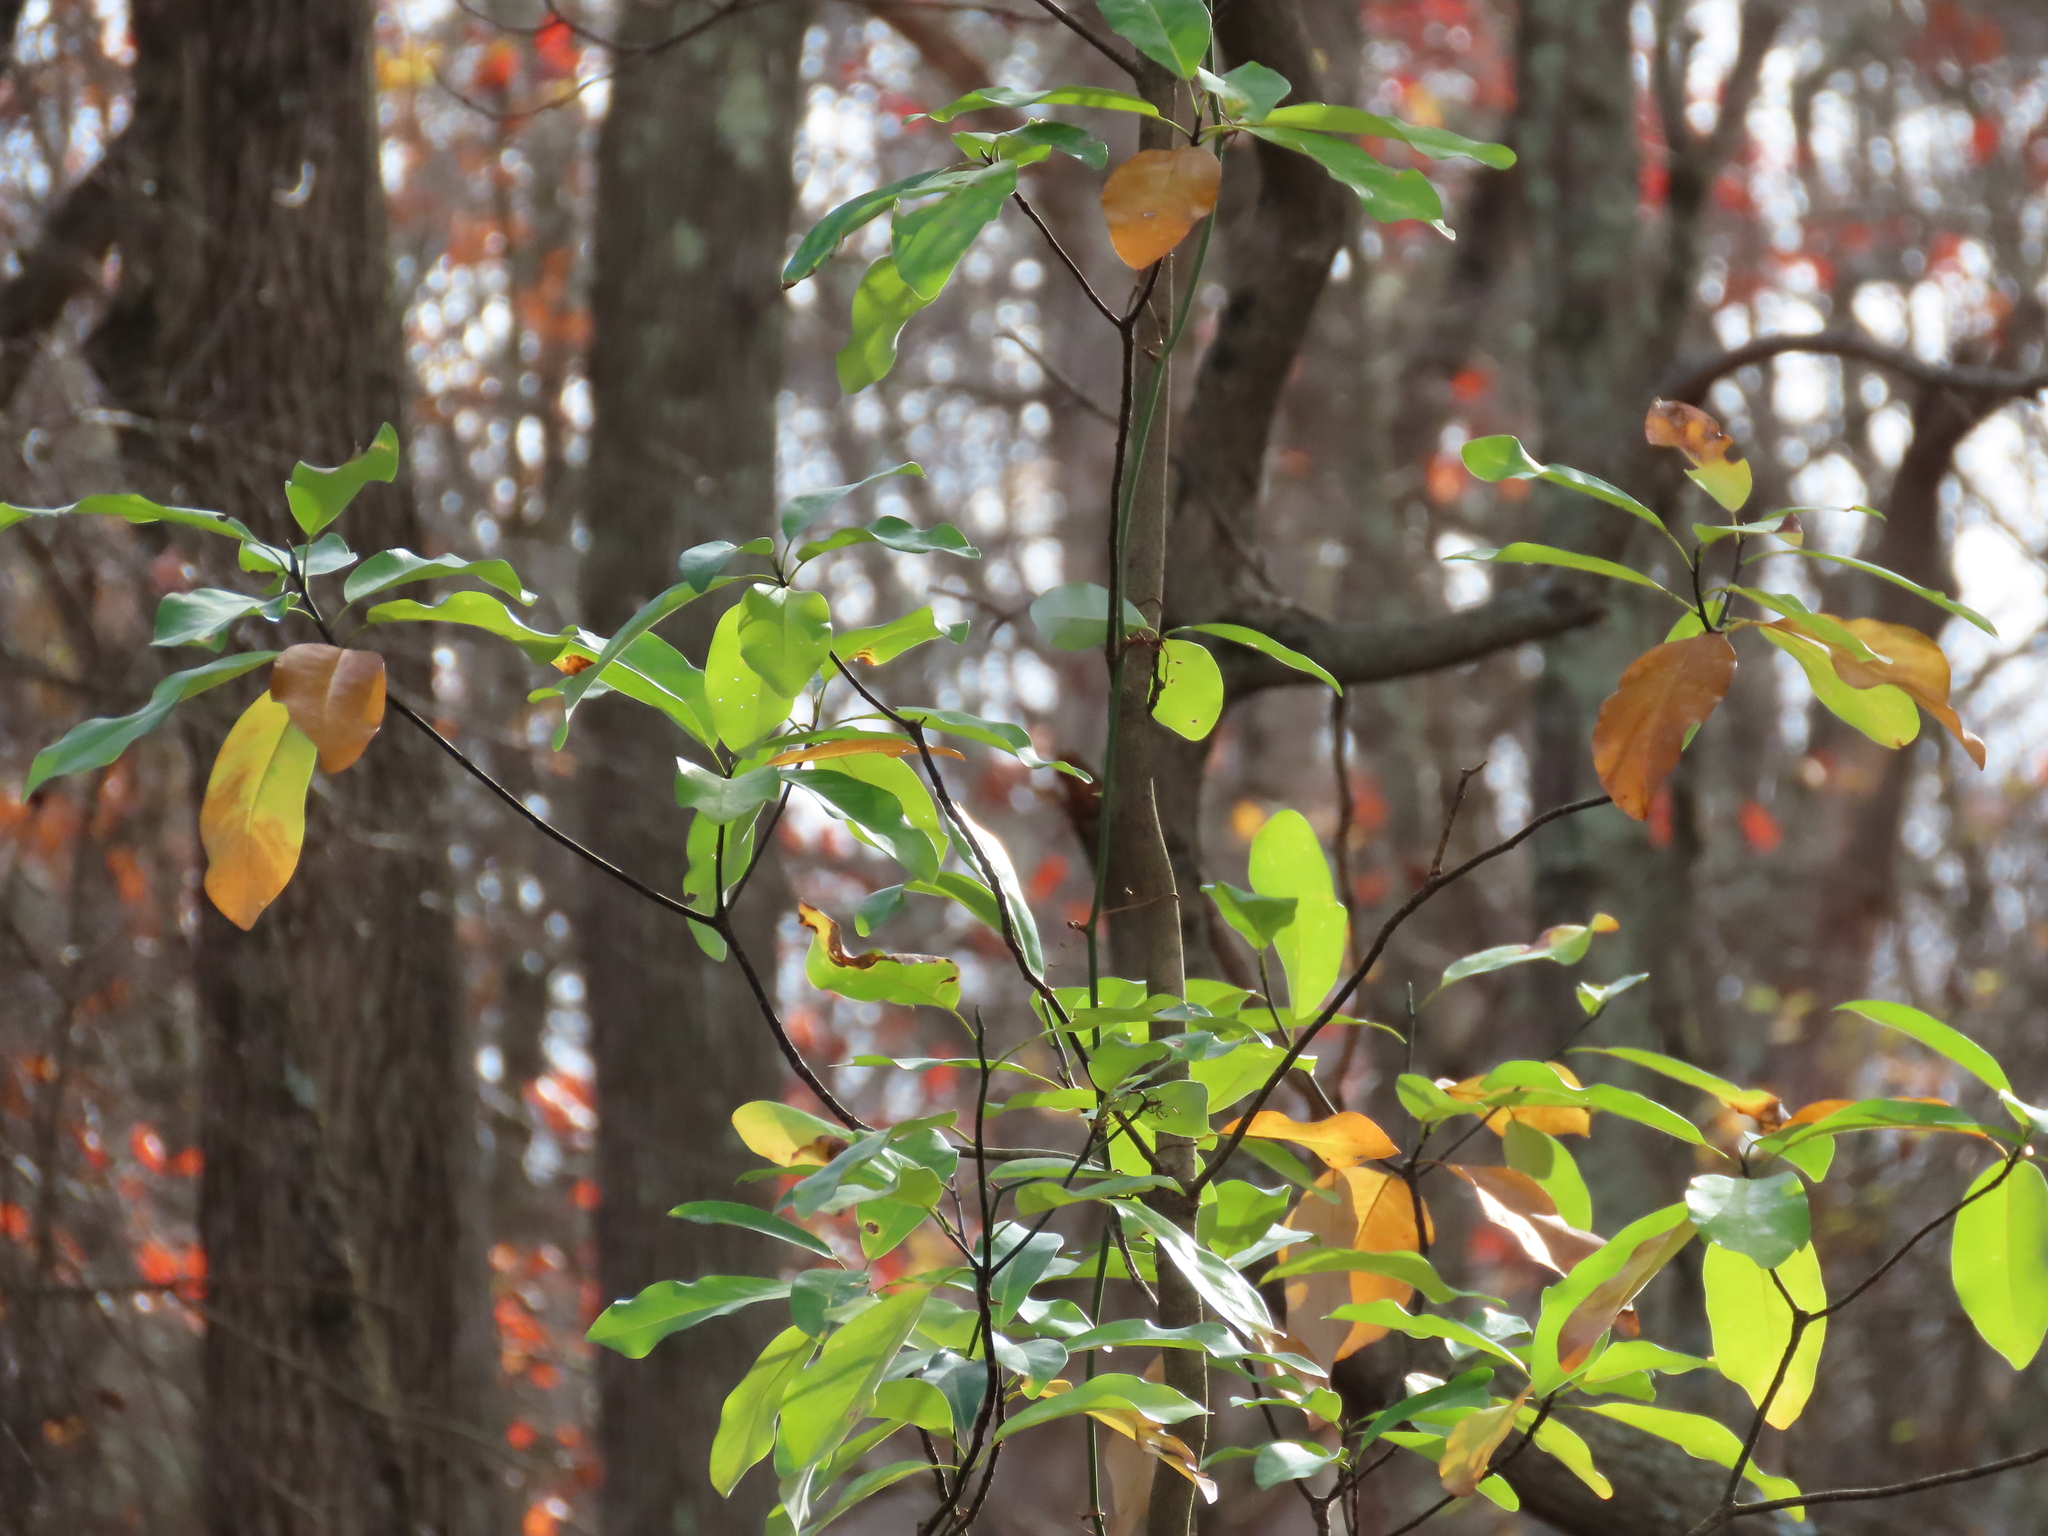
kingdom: Plantae
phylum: Tracheophyta
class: Magnoliopsida
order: Magnoliales
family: Magnoliaceae
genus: Magnolia
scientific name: Magnolia virginiana
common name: Swamp bay
